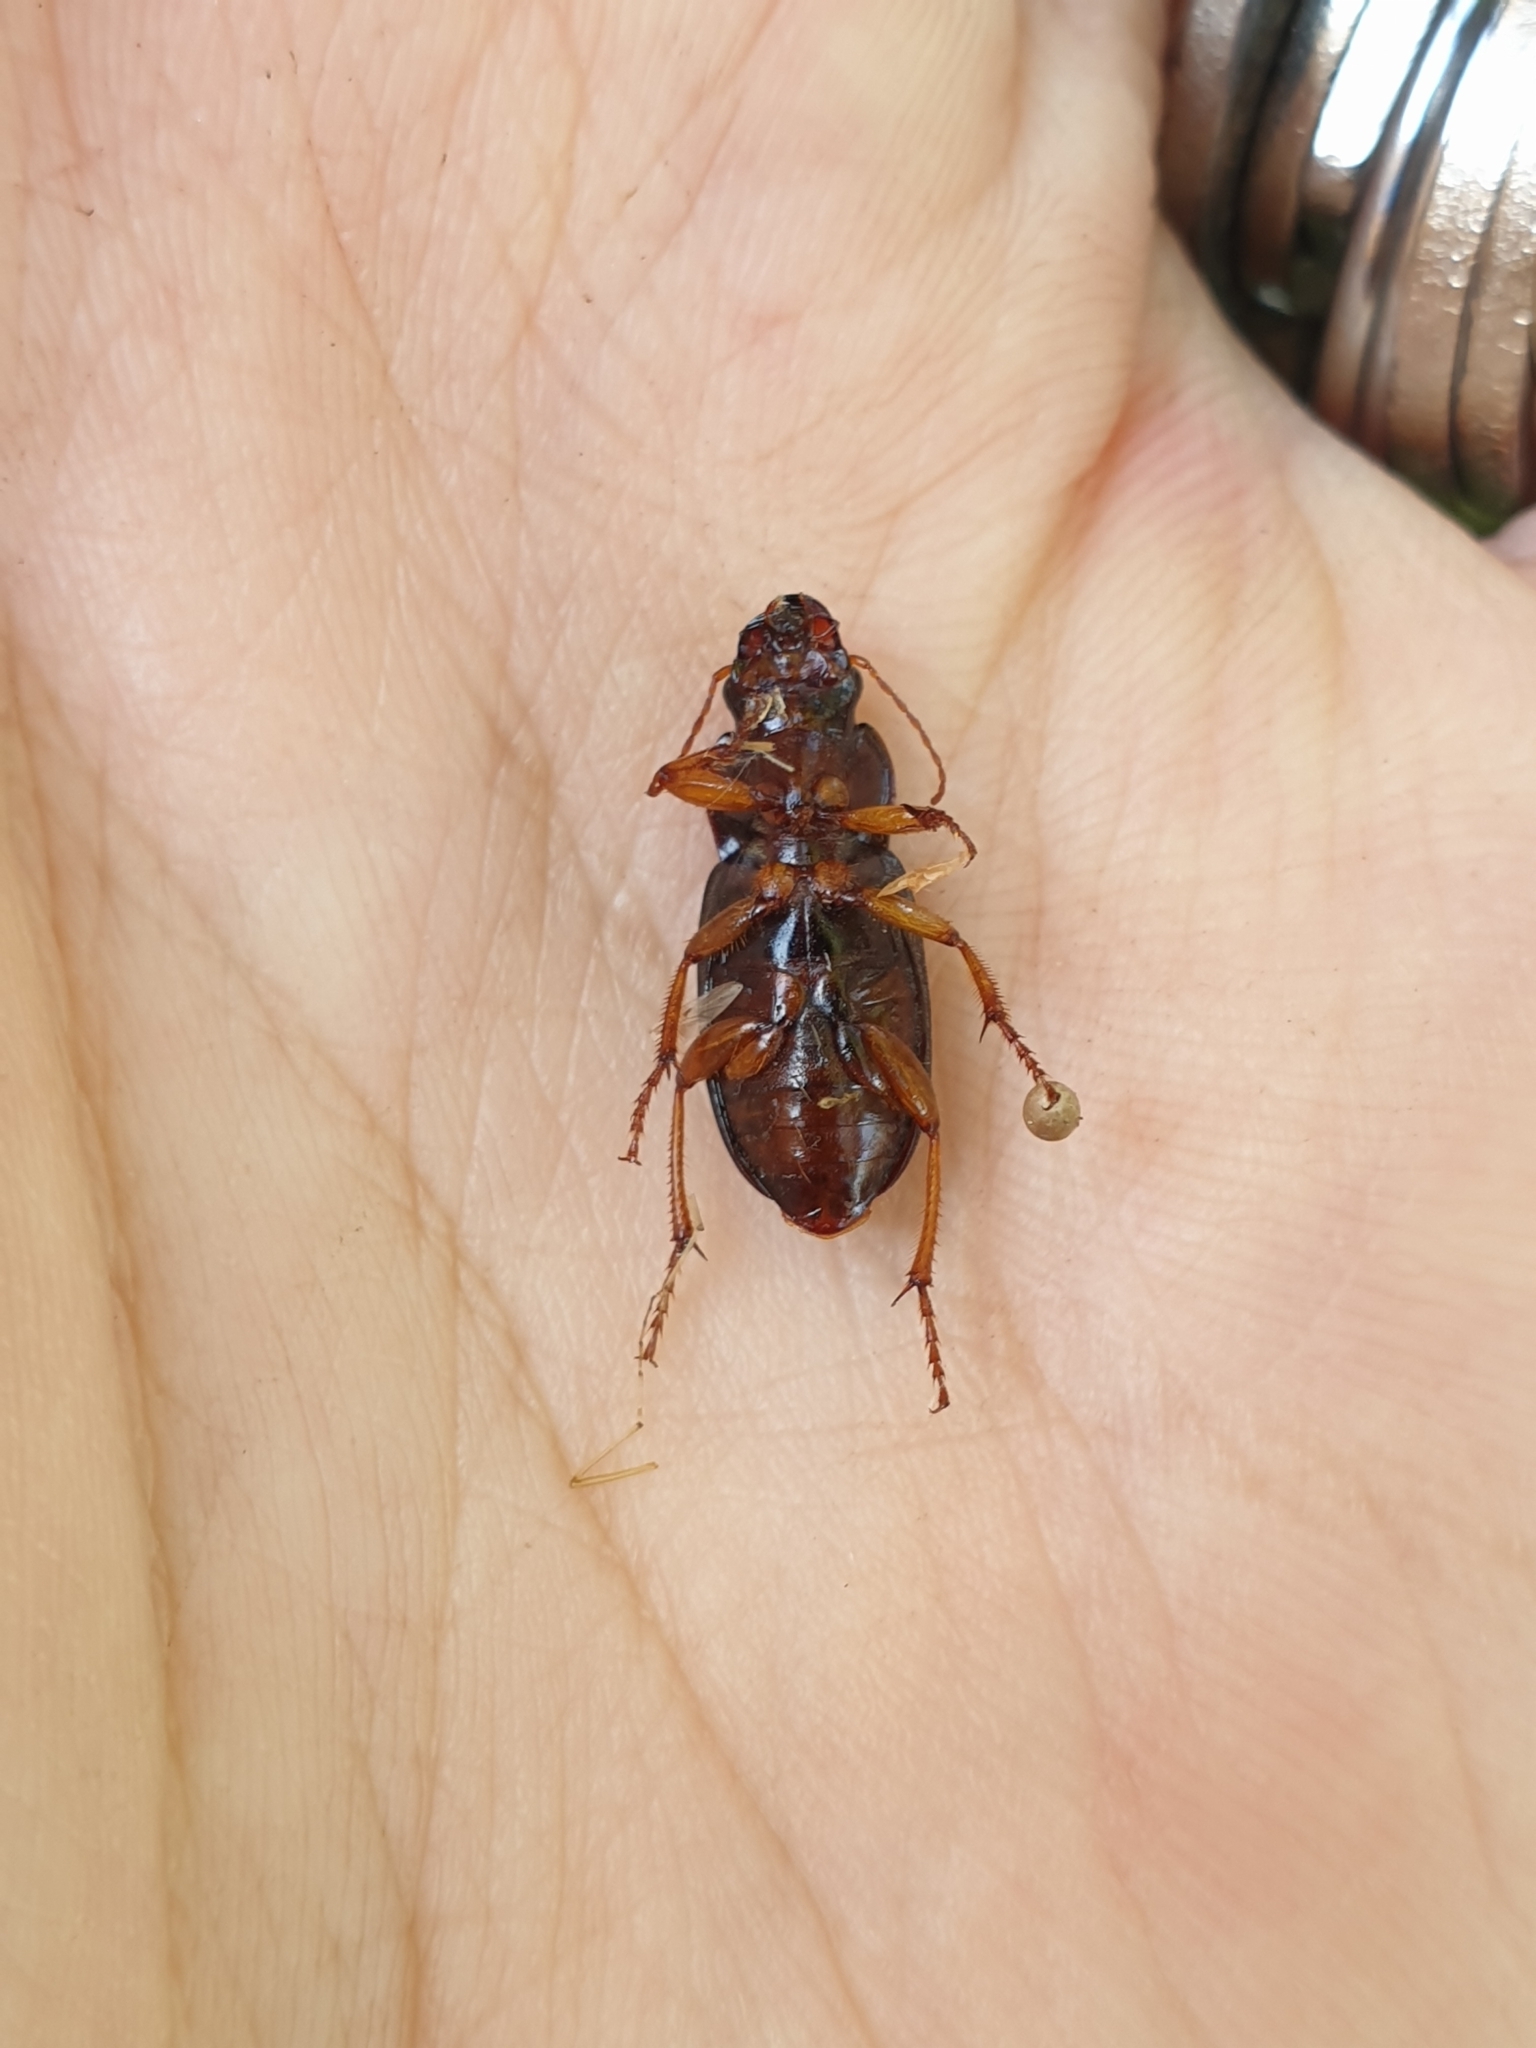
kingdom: Animalia
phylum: Arthropoda
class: Insecta
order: Coleoptera
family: Carabidae
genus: Harpalus
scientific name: Harpalus rufipes
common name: Strawberry harp ground beetle
